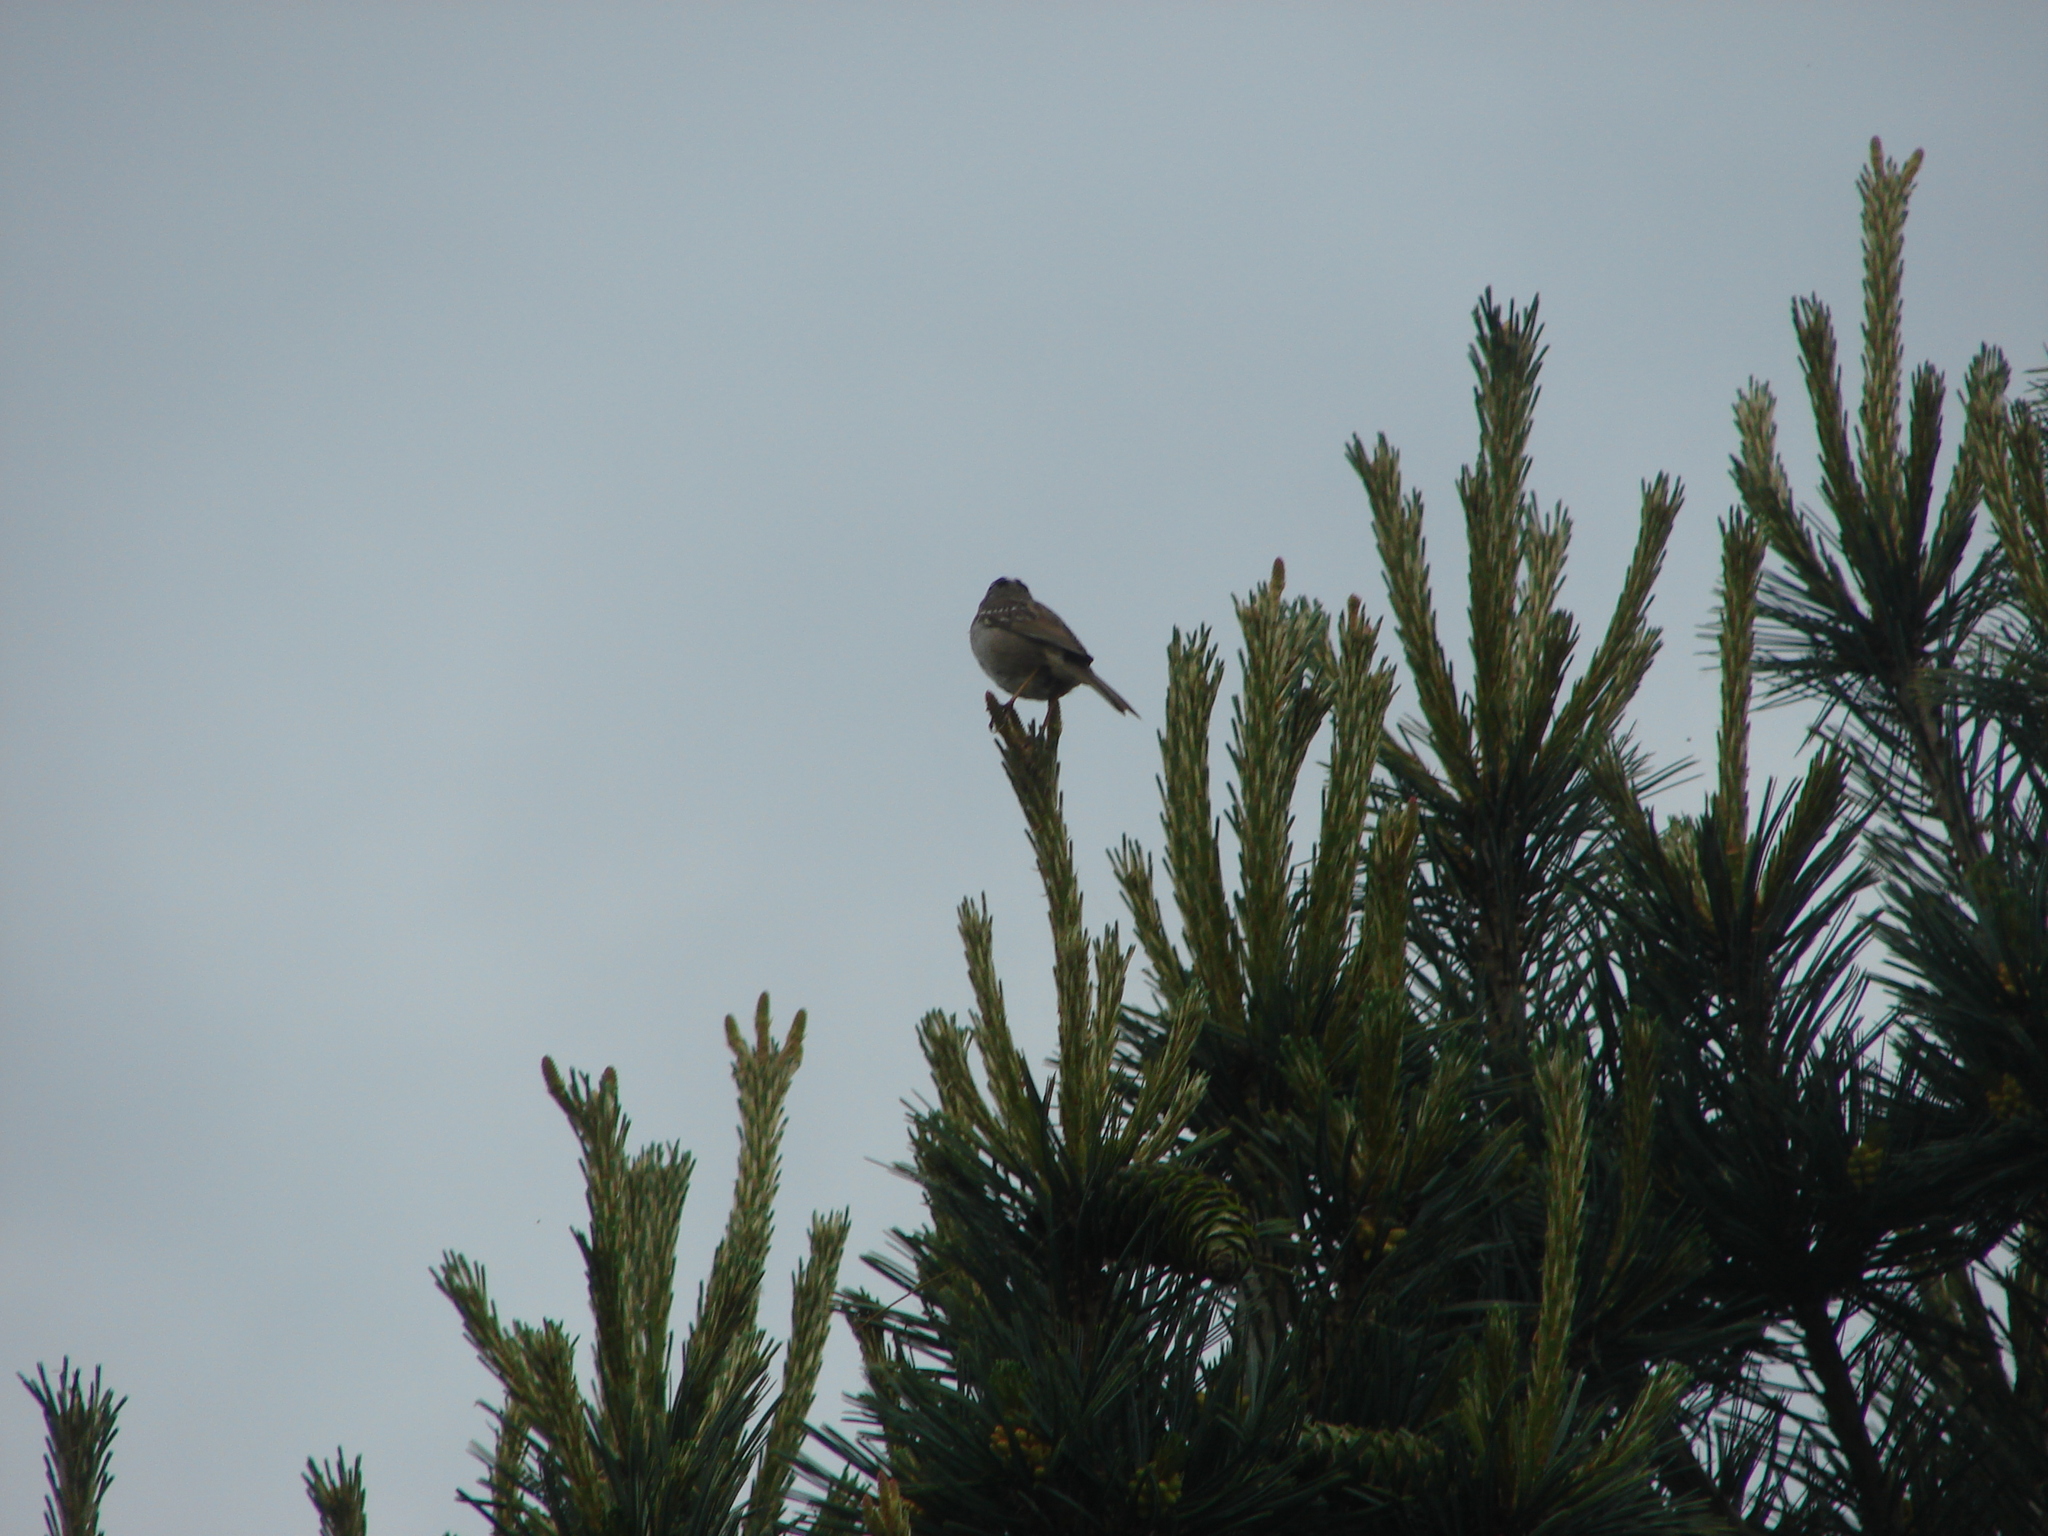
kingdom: Animalia
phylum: Chordata
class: Aves
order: Passeriformes
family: Passerellidae
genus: Zonotrichia
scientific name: Zonotrichia leucophrys
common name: White-crowned sparrow
